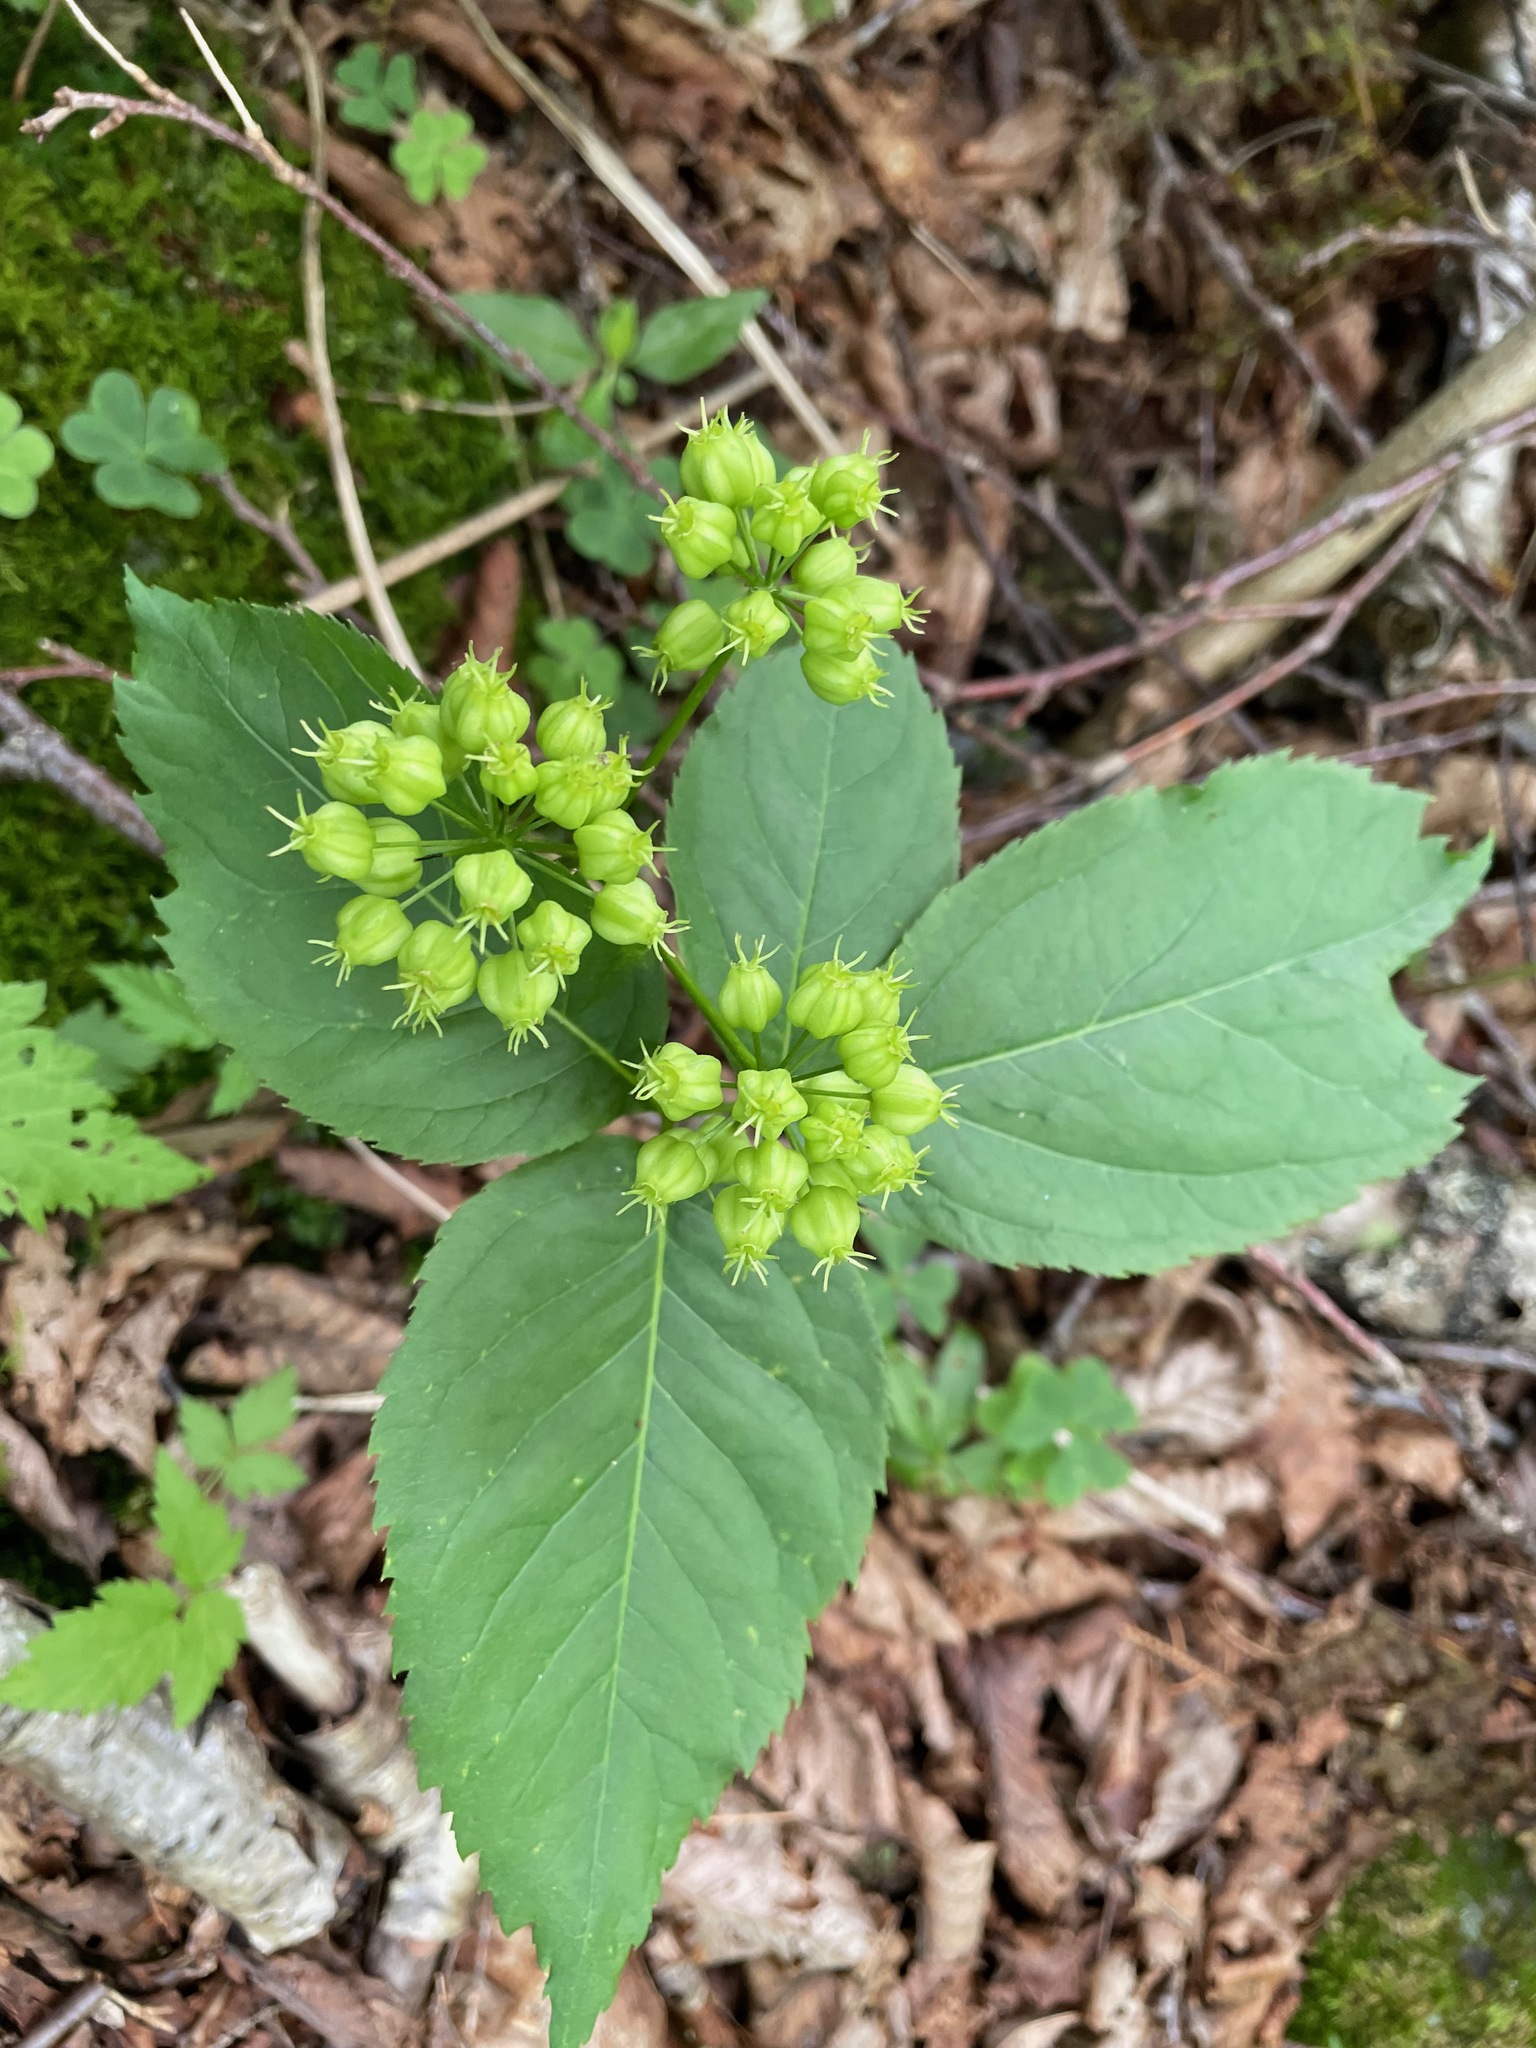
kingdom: Plantae
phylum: Tracheophyta
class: Magnoliopsida
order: Apiales
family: Araliaceae
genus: Aralia
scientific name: Aralia nudicaulis
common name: Wild sarsaparilla
